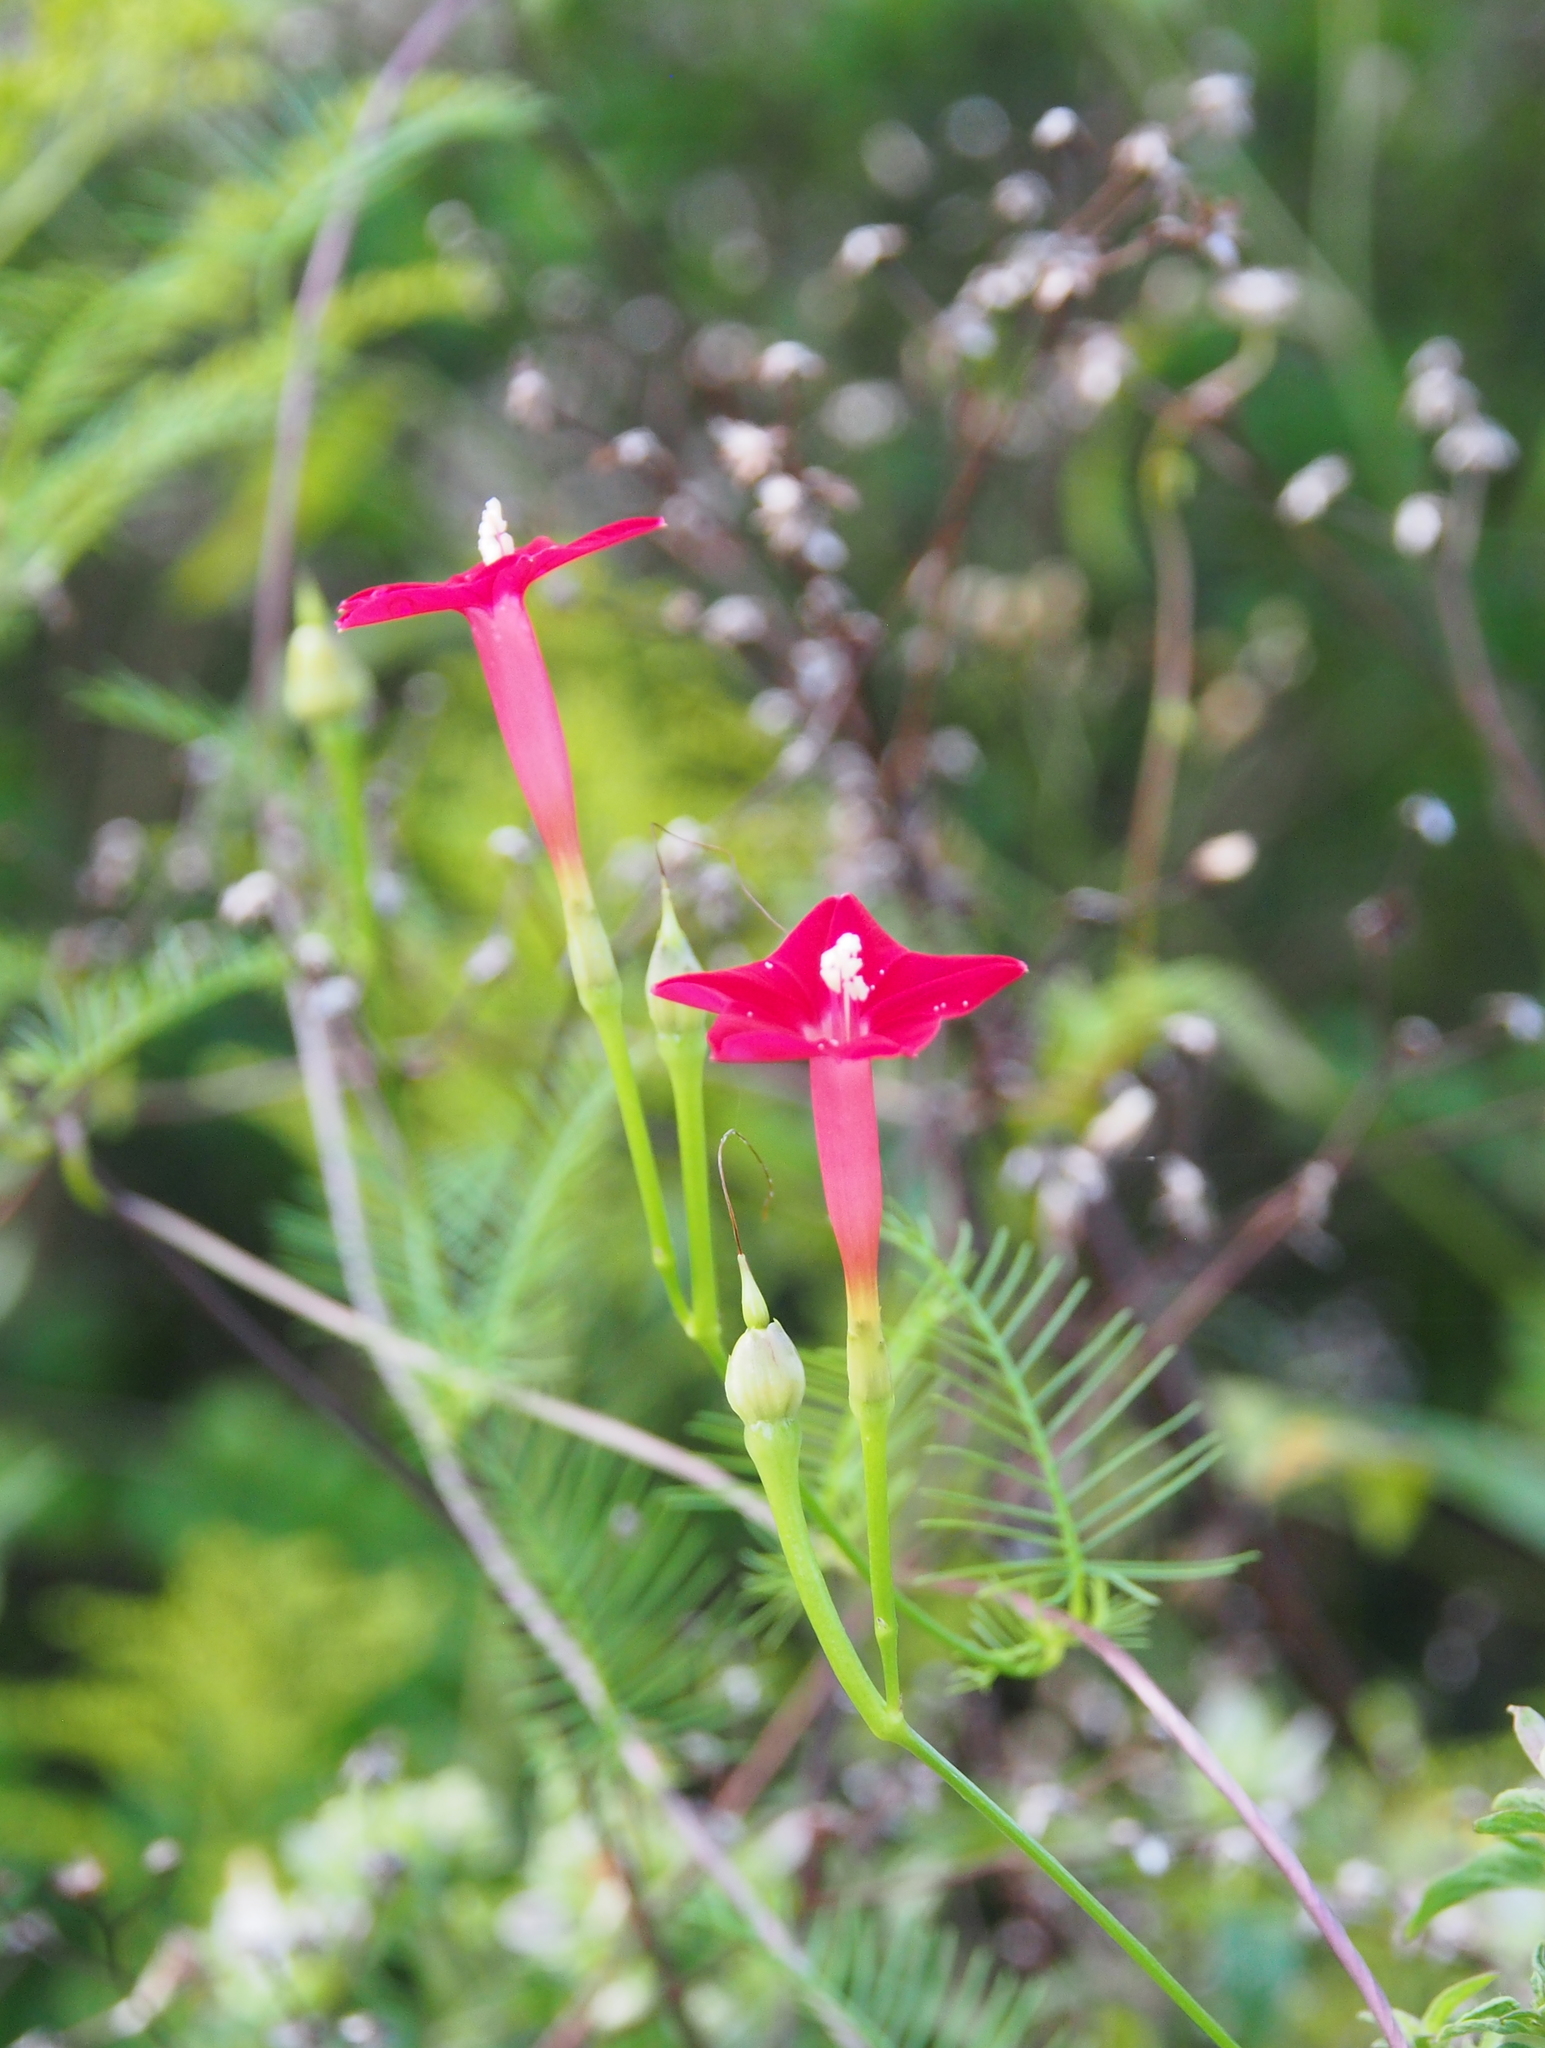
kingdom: Plantae
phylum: Tracheophyta
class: Magnoliopsida
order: Solanales
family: Convolvulaceae
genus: Ipomoea
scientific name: Ipomoea quamoclit
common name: Cypress vine
